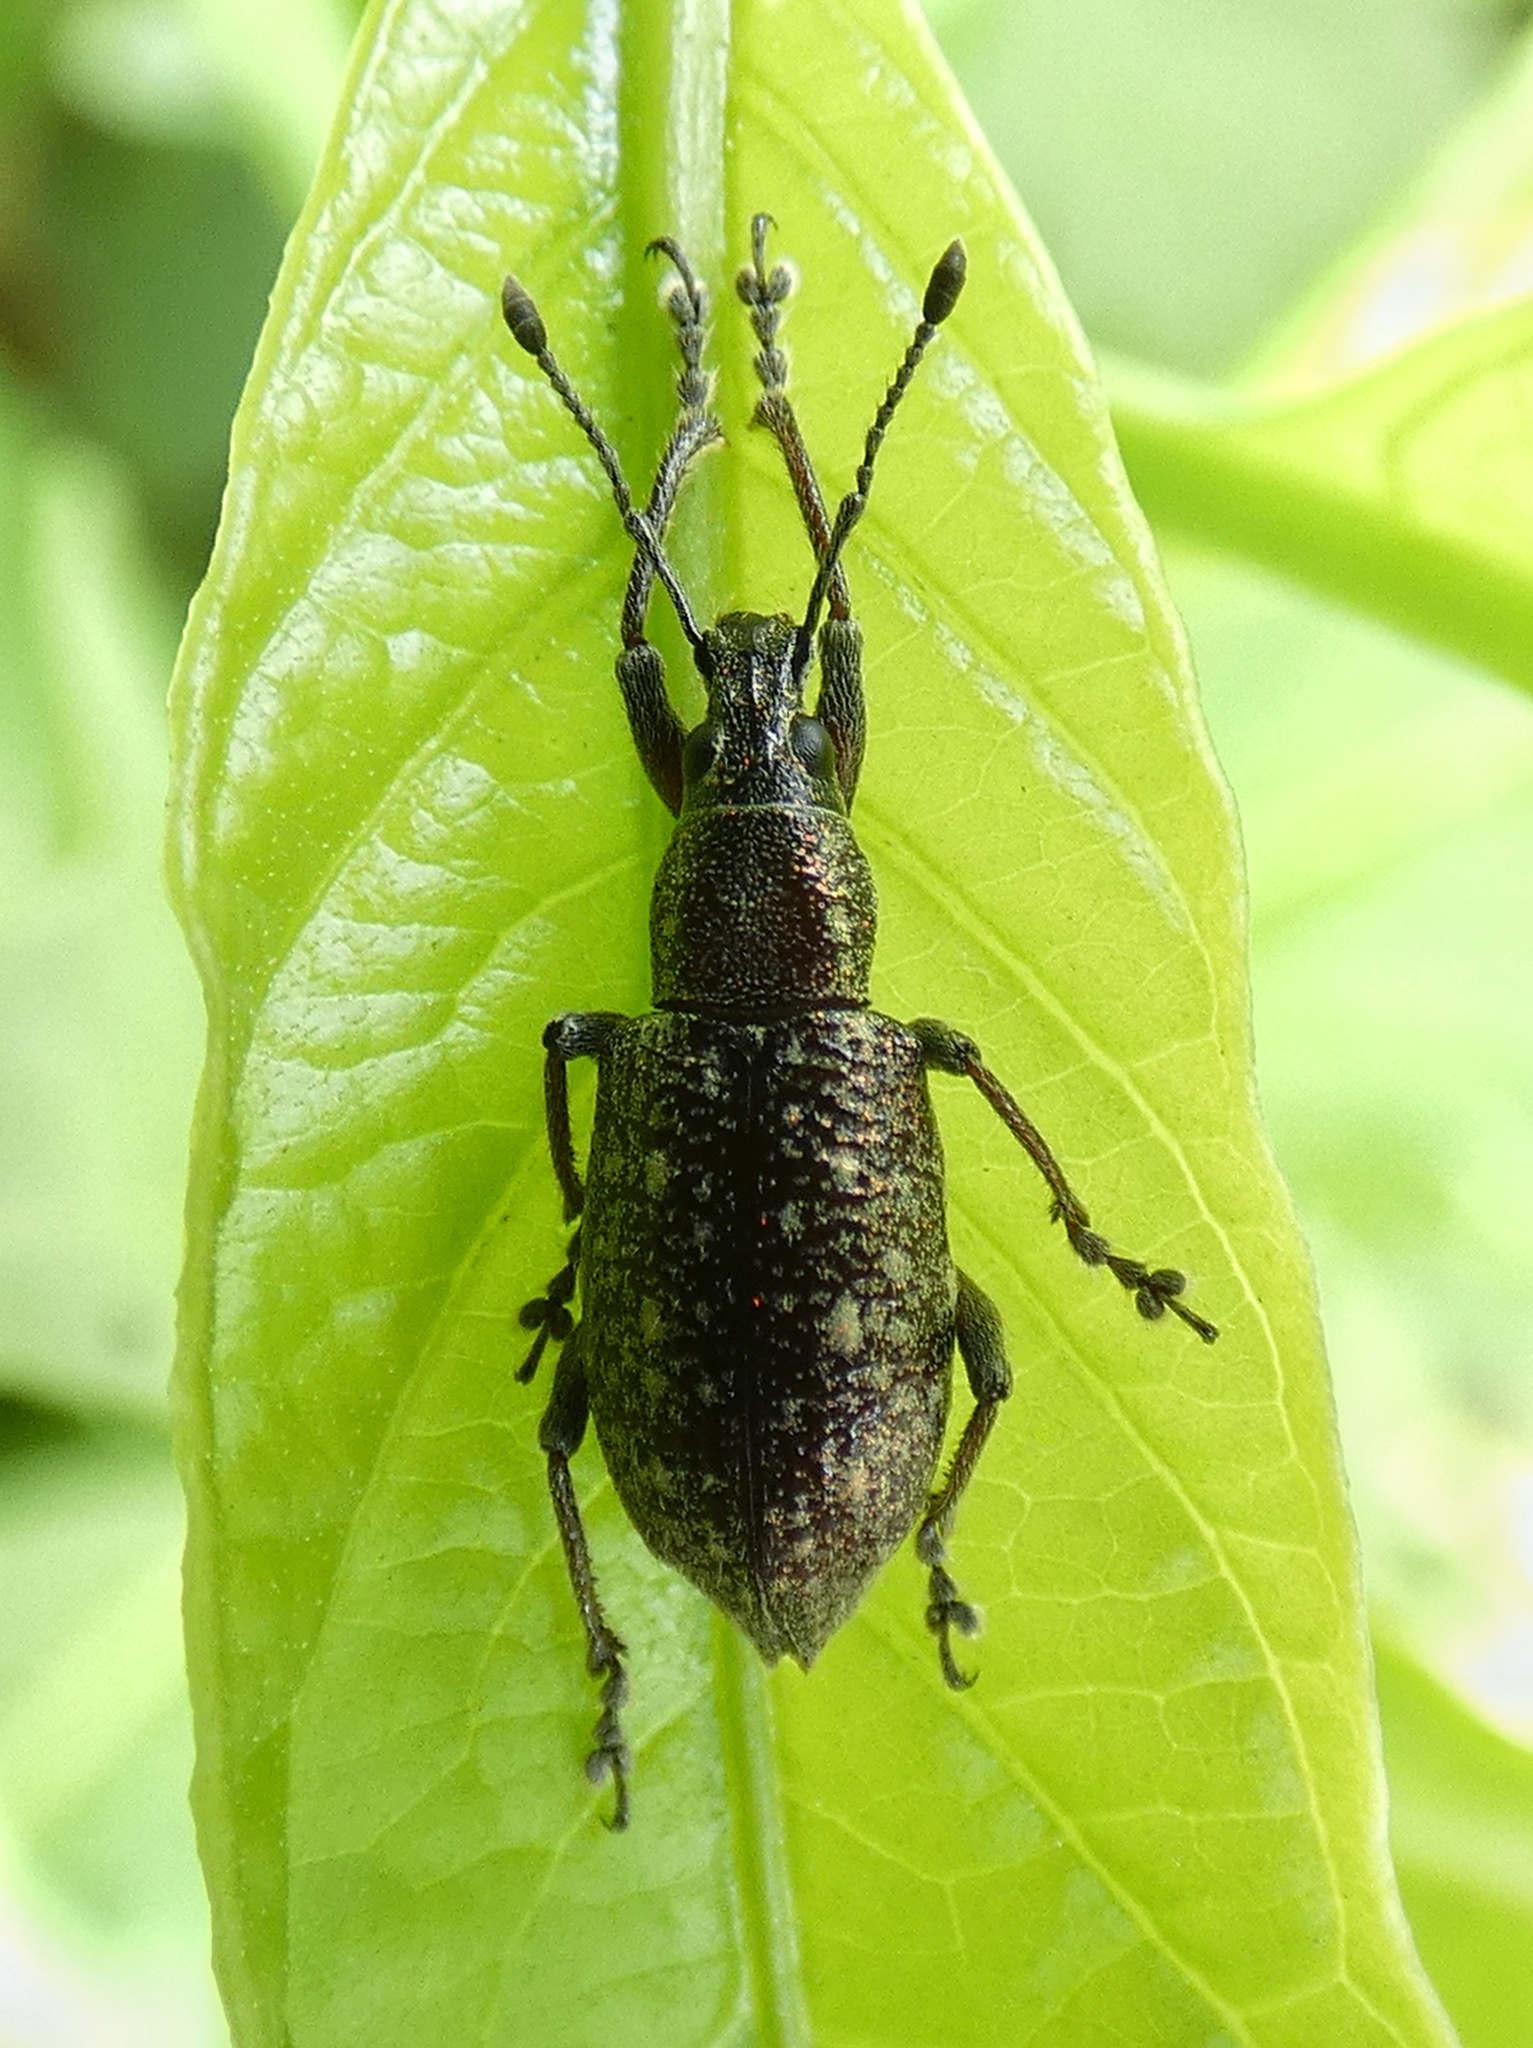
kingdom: Animalia
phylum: Arthropoda
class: Insecta
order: Coleoptera
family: Curculionidae
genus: Exophthalmus
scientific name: Exophthalmus jekelianus
